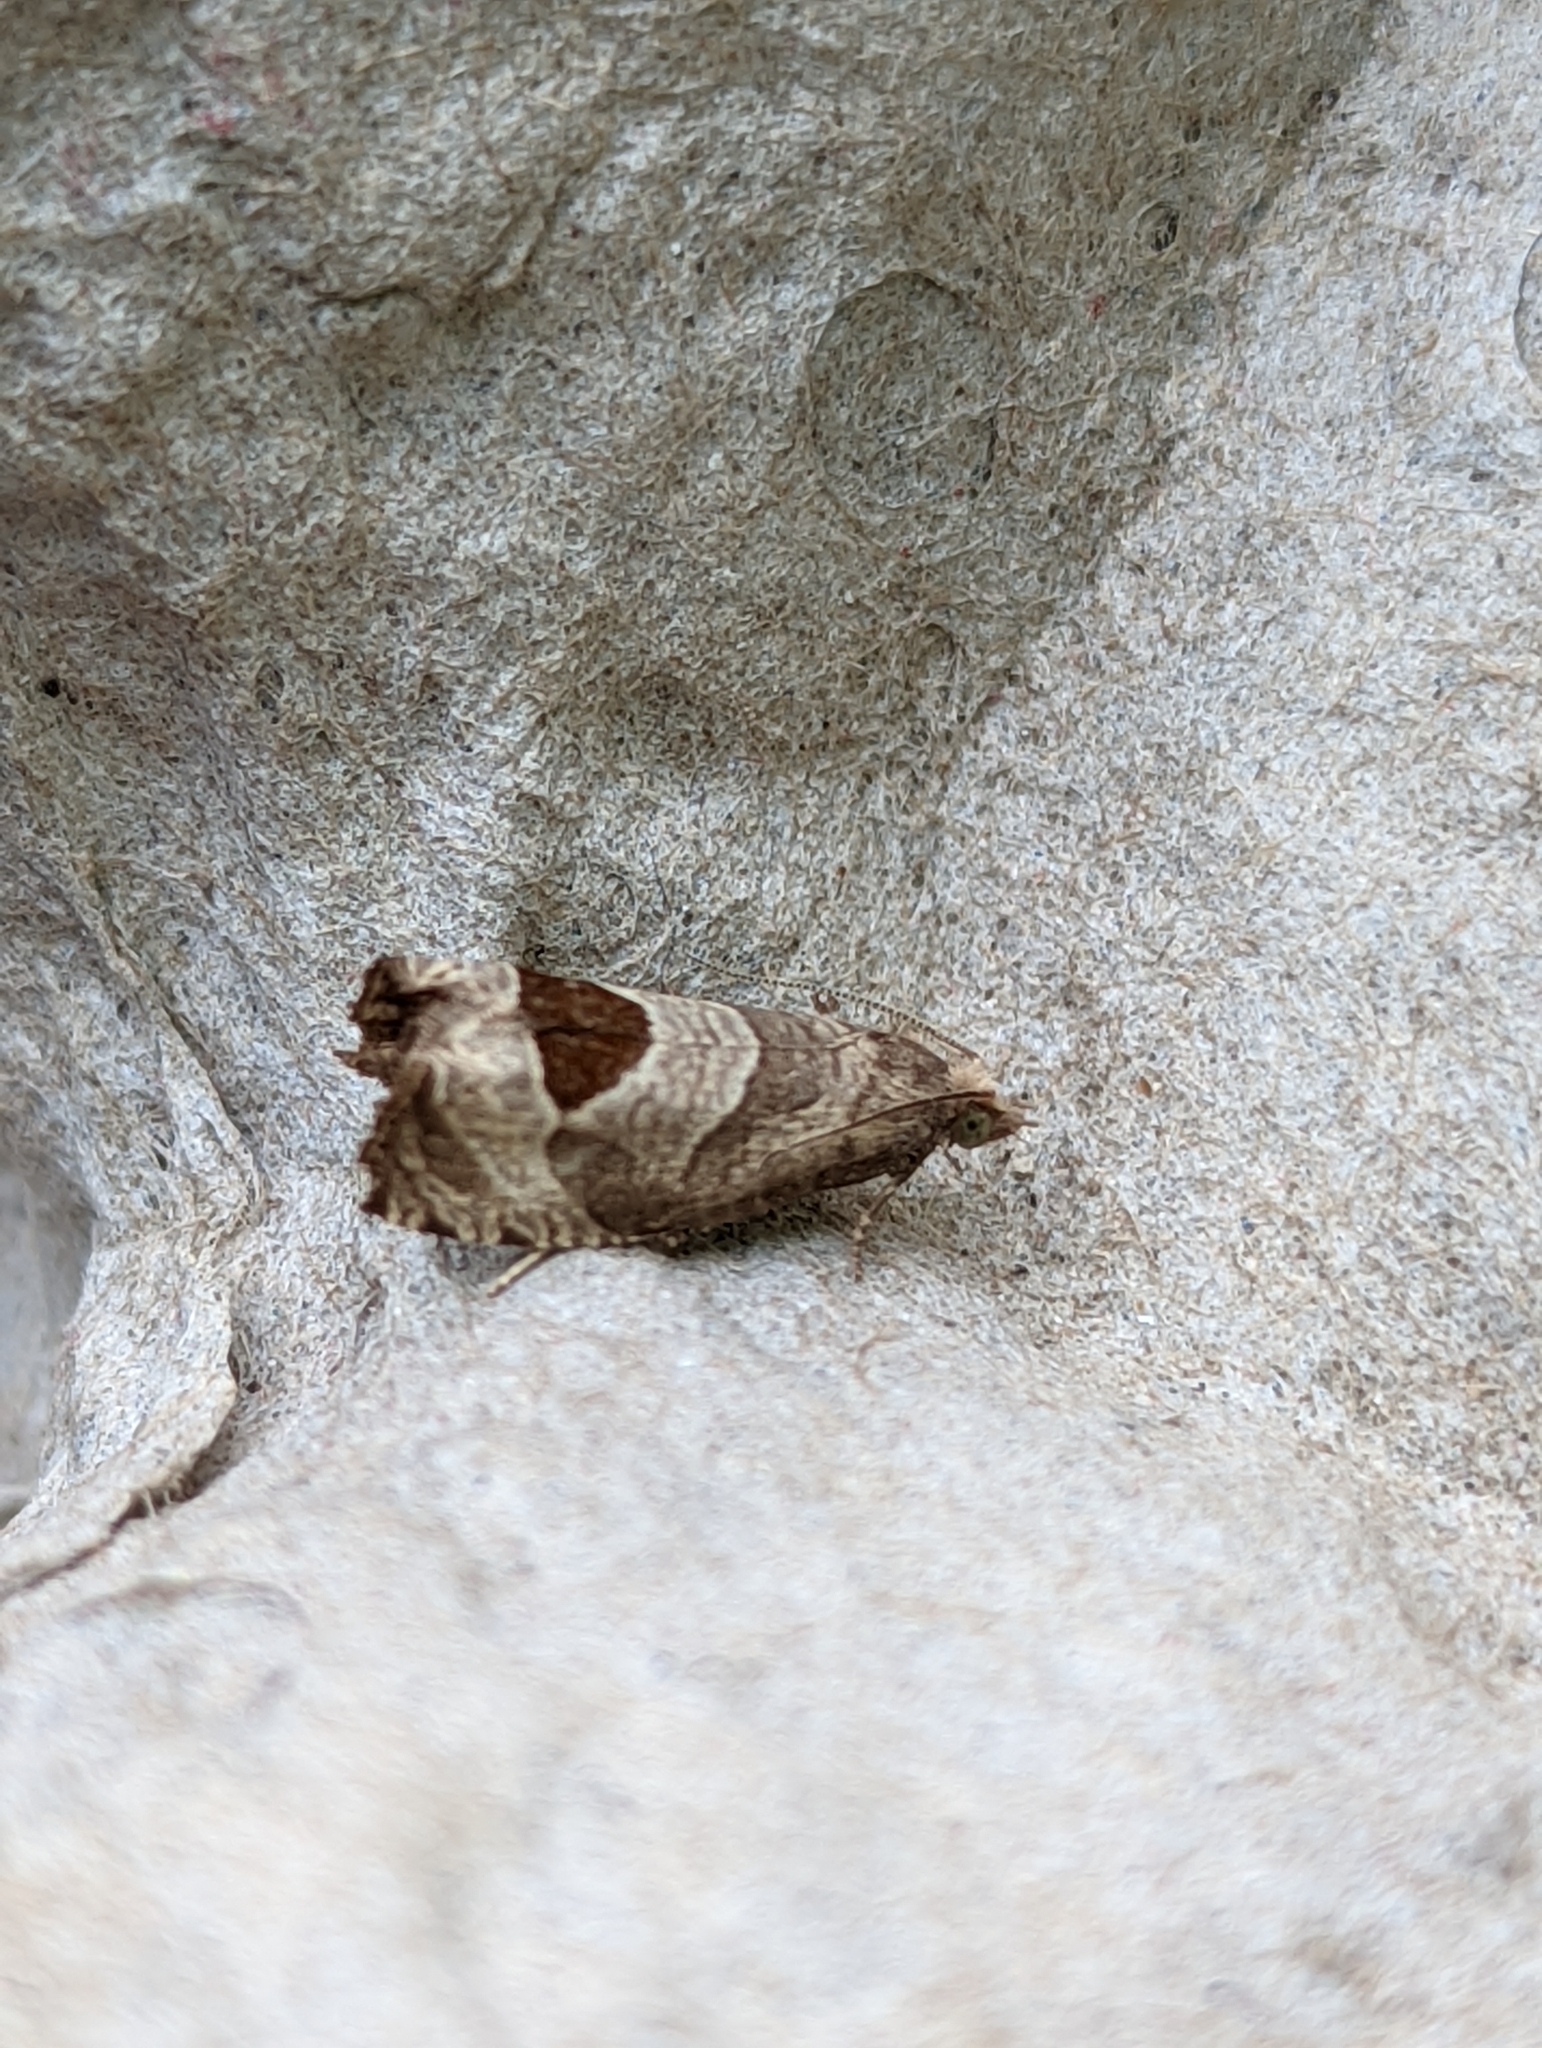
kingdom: Animalia
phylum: Arthropoda
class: Insecta
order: Lepidoptera
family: Tortricidae
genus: Notocelia
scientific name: Notocelia uddmanniana
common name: Bramble shoot moth
